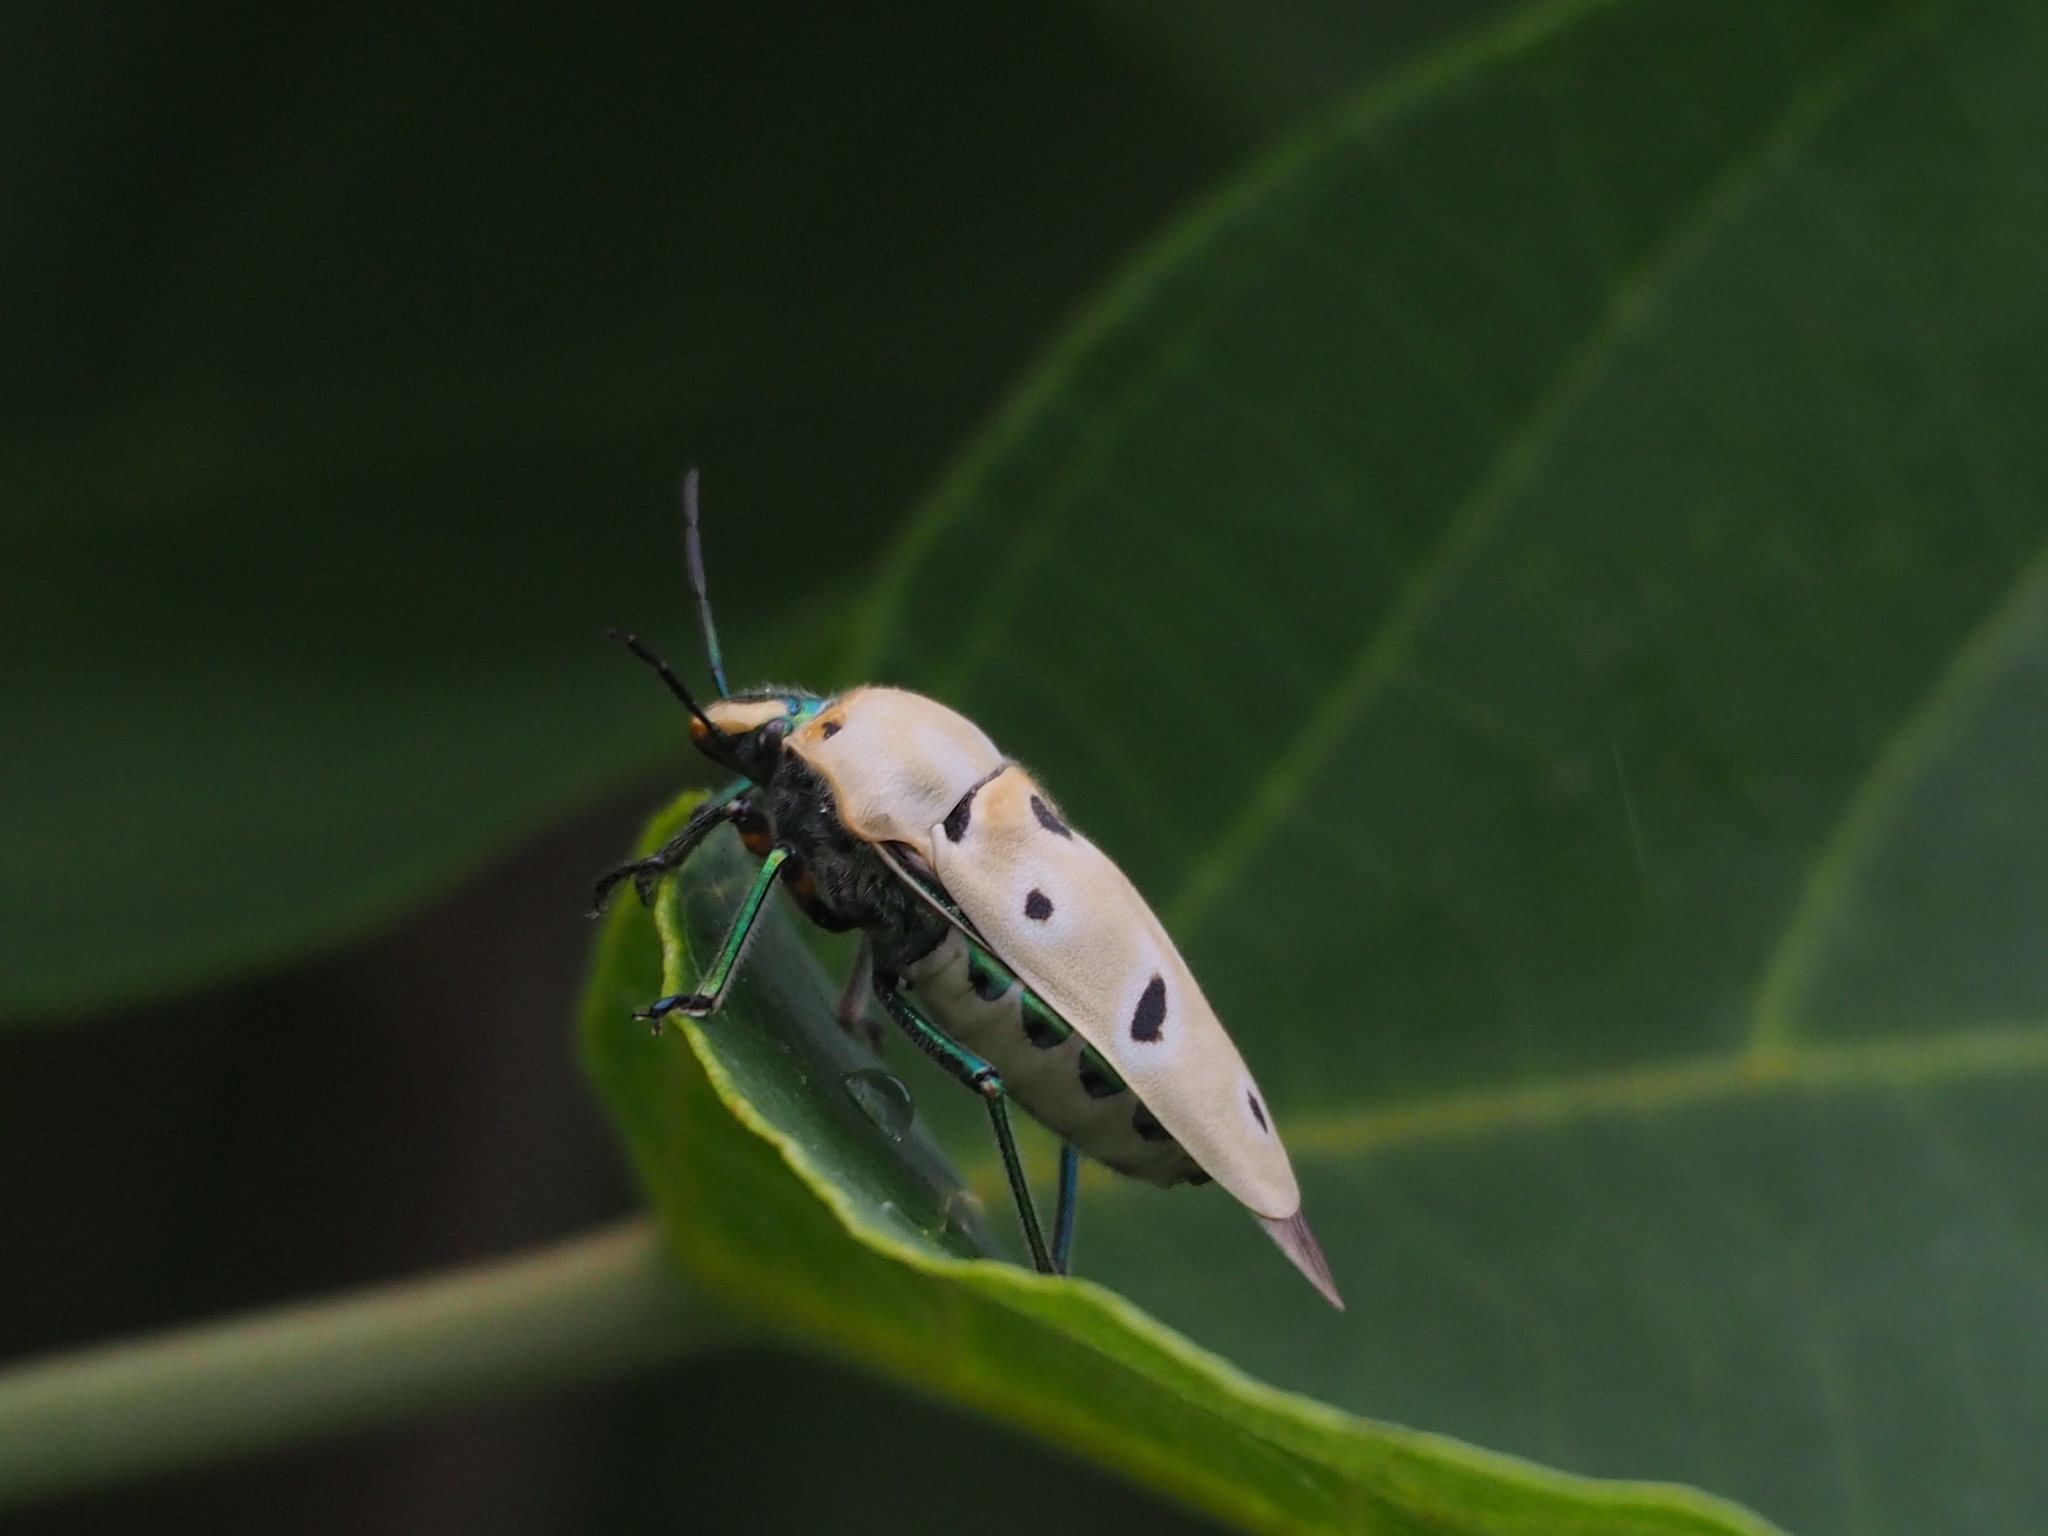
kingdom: Animalia
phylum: Arthropoda
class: Insecta
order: Hemiptera
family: Scutelleridae
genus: Cantao
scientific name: Cantao ocellatus
